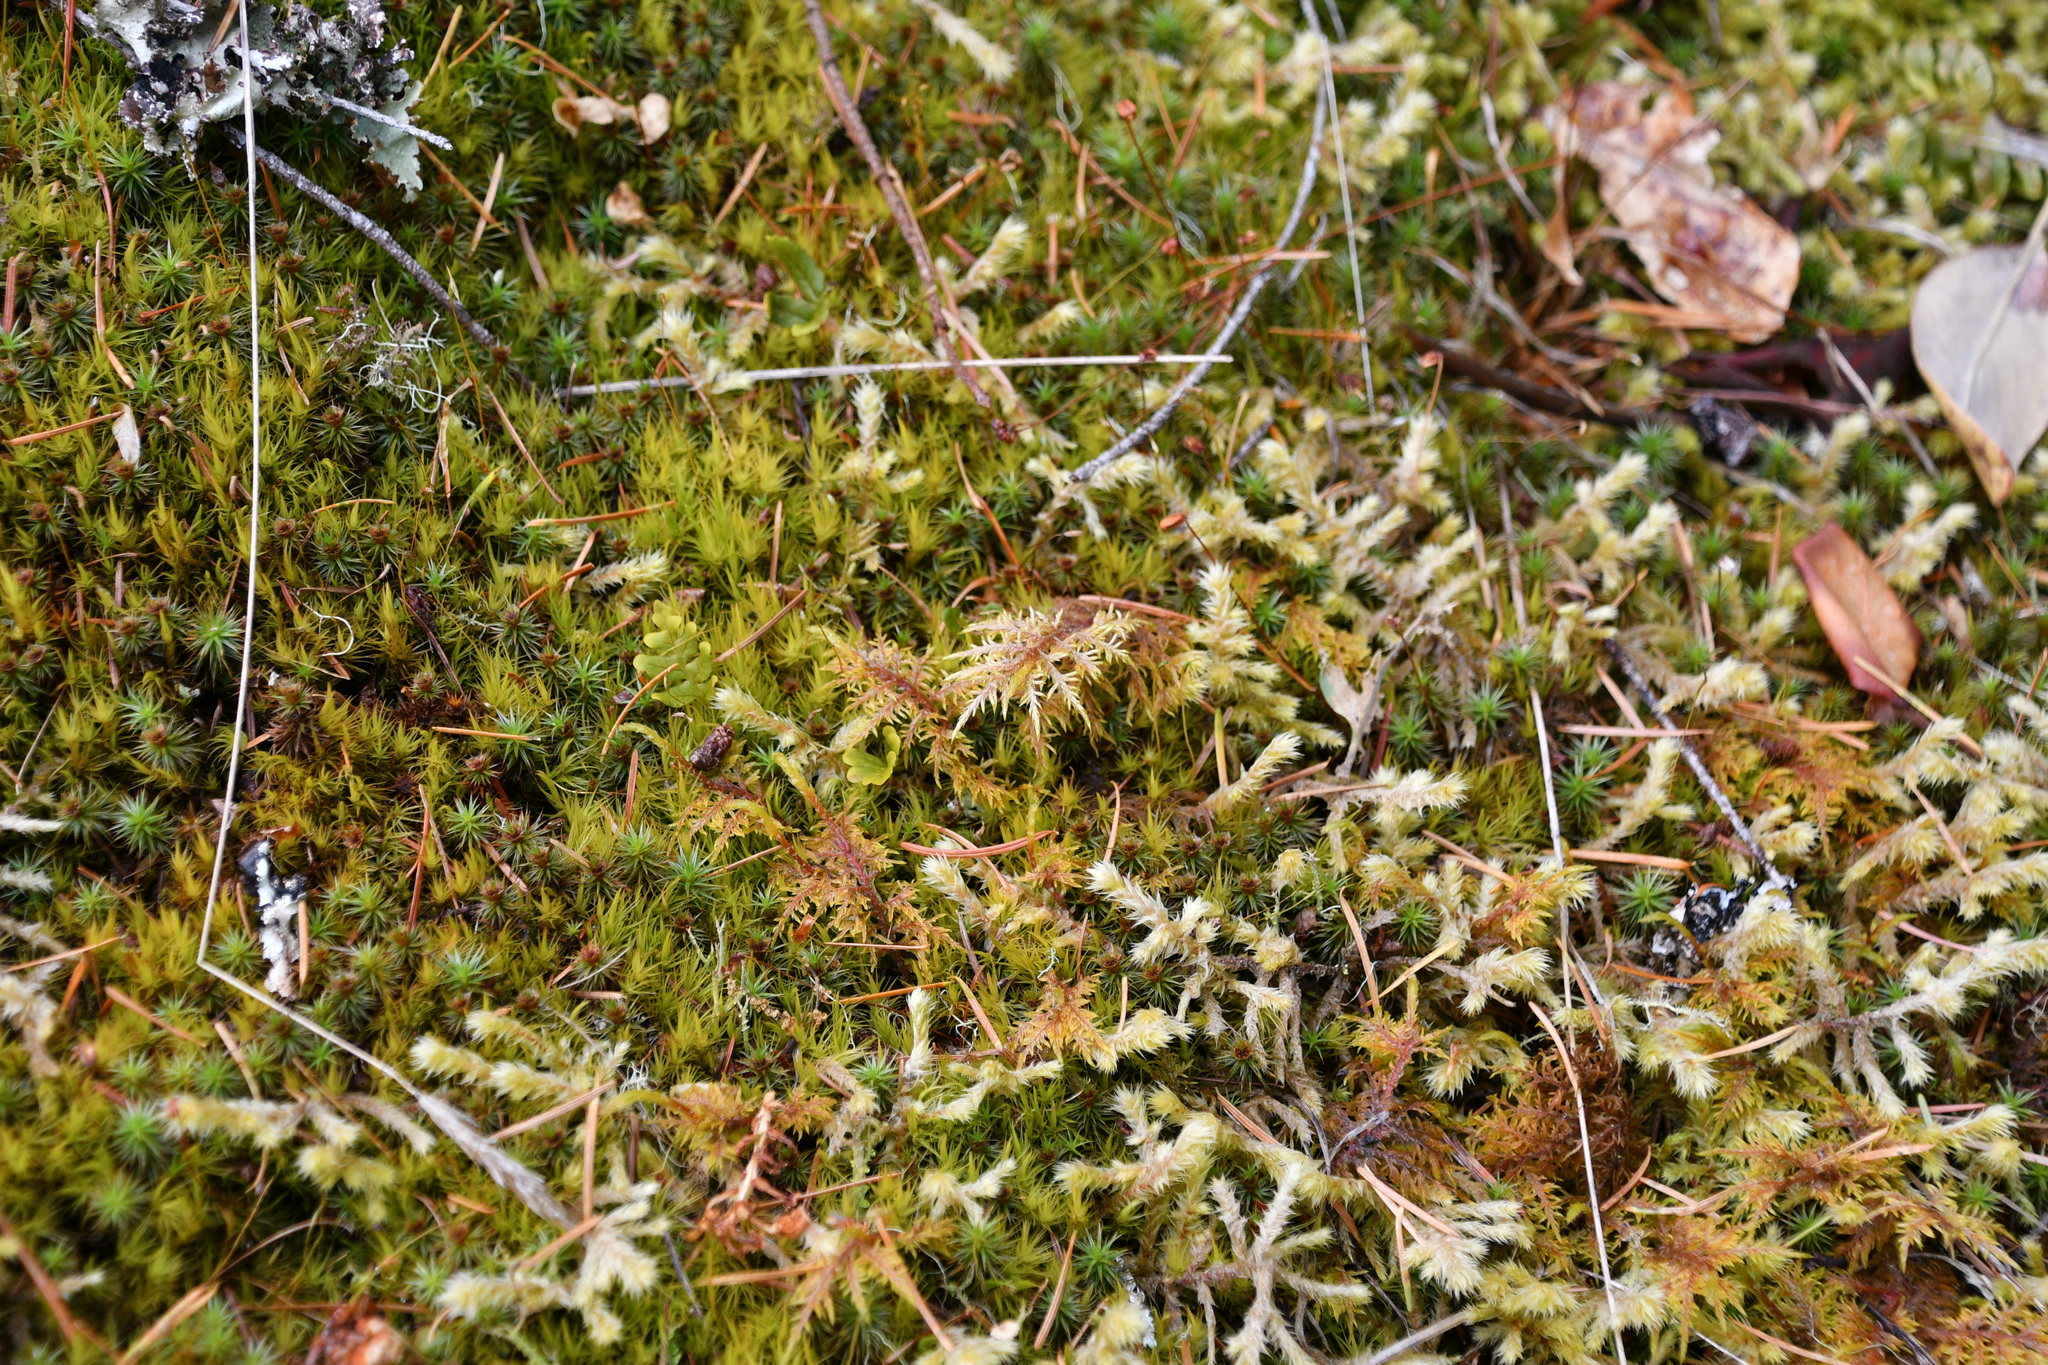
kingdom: Plantae
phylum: Bryophyta
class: Bryopsida
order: Hypnales
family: Hylocomiaceae
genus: Hylocomium
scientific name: Hylocomium splendens
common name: Stairstep moss
